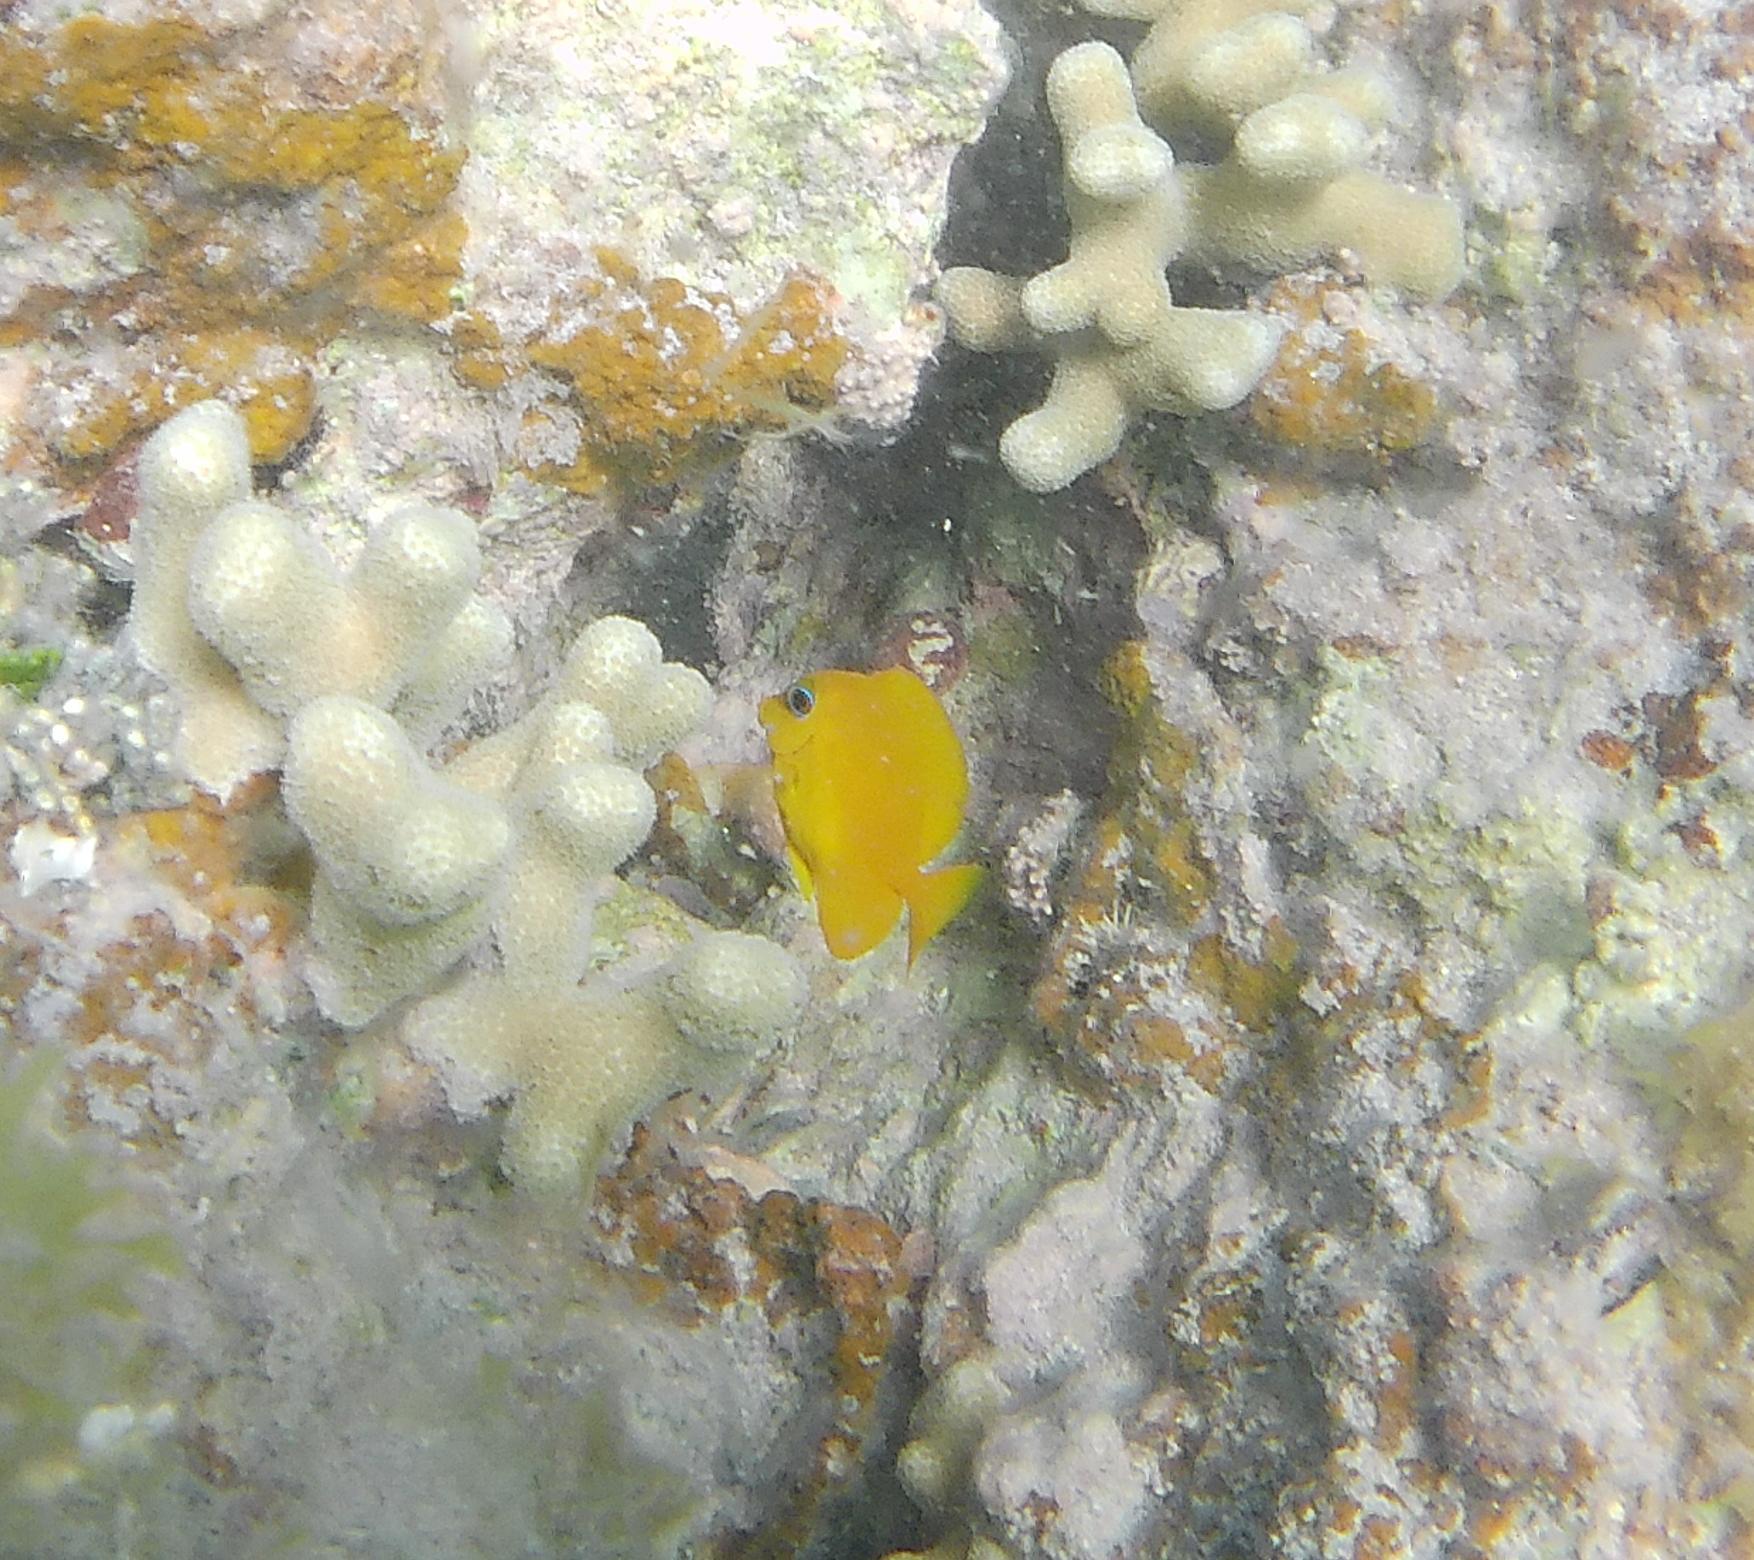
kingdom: Animalia
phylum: Chordata
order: Perciformes
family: Acanthuridae
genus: Acanthurus
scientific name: Acanthurus coeruleus
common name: Blue tang
